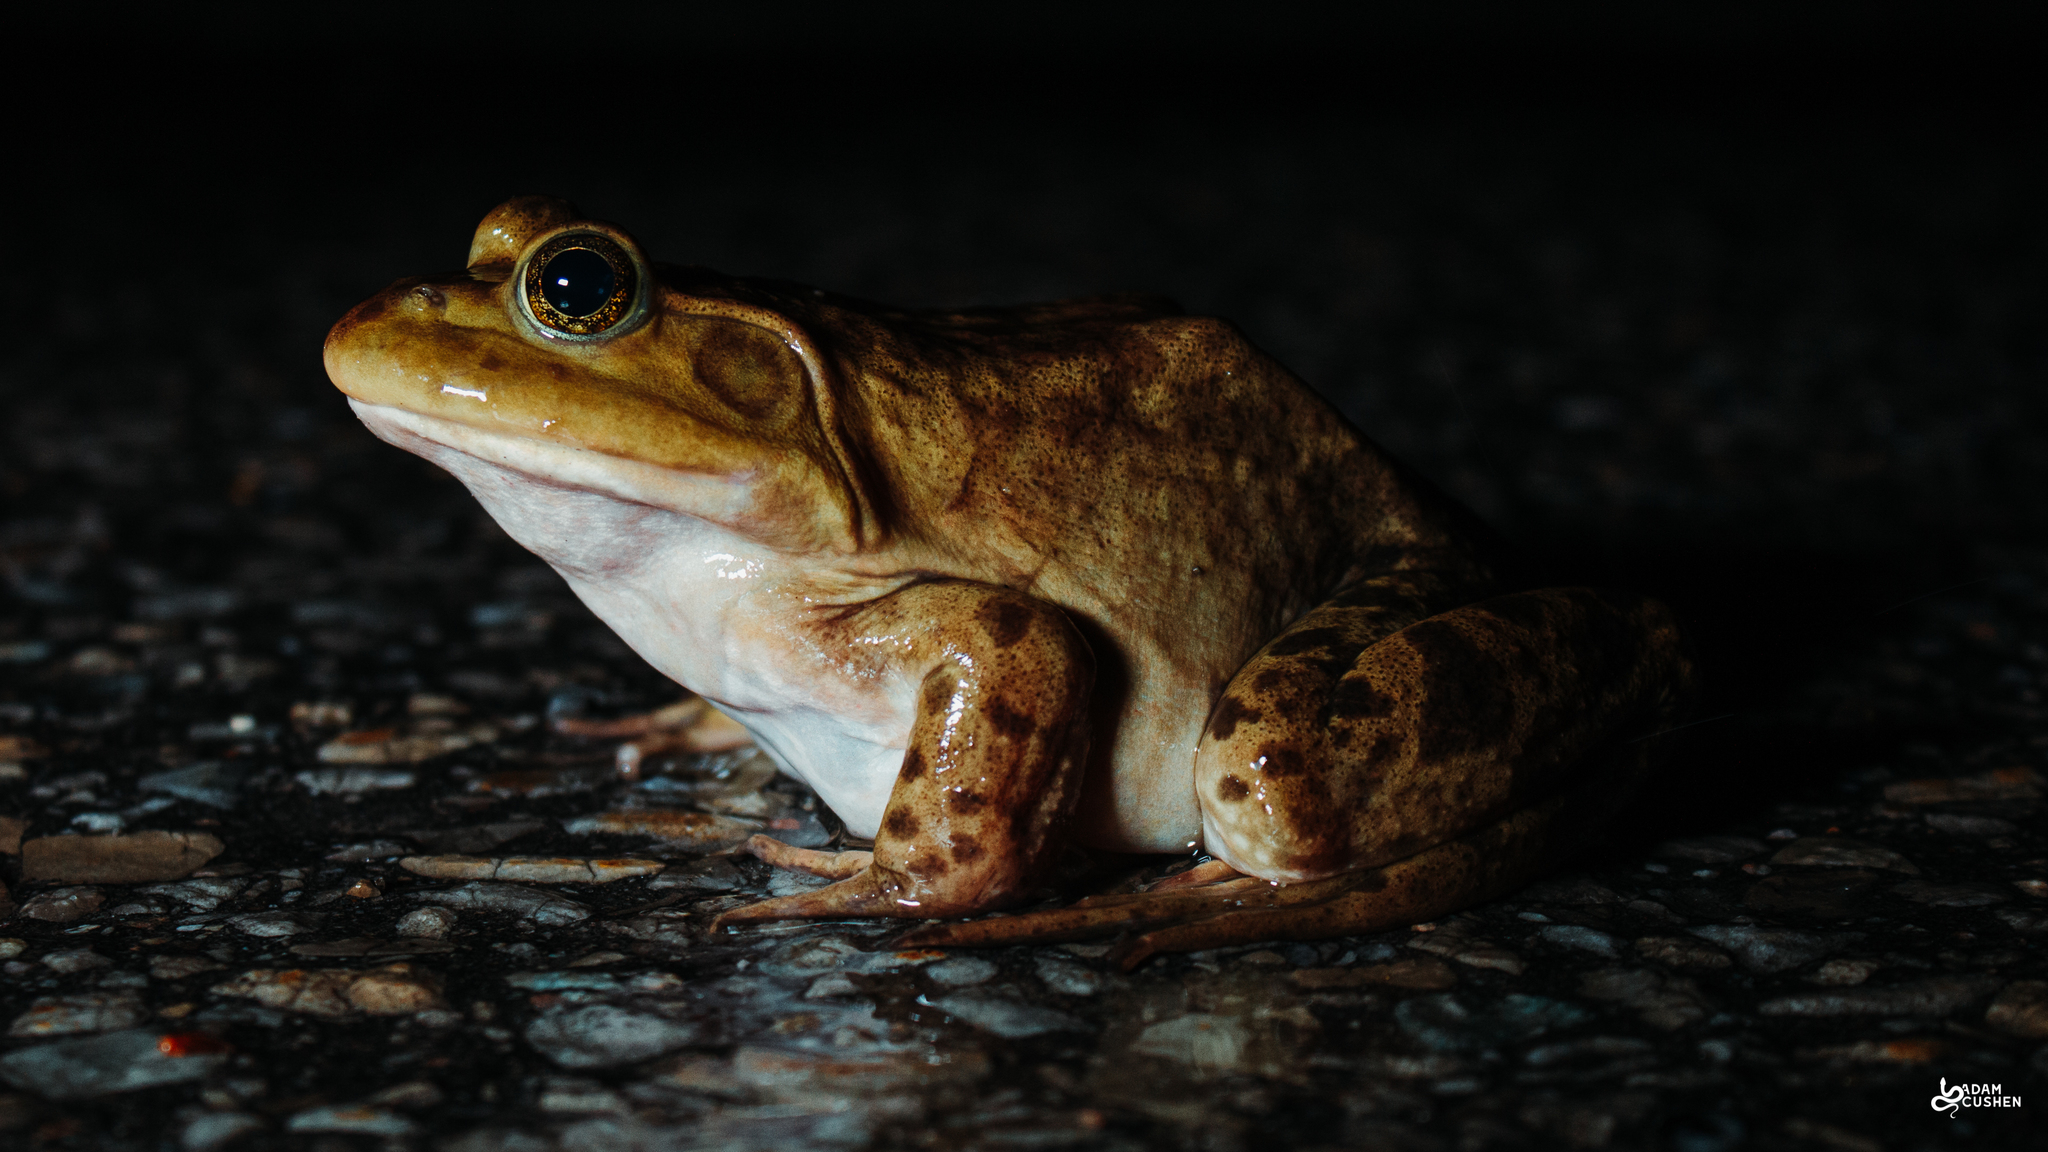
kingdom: Animalia
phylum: Chordata
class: Amphibia
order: Anura
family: Ranidae
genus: Lithobates
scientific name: Lithobates catesbeianus
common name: American bullfrog
